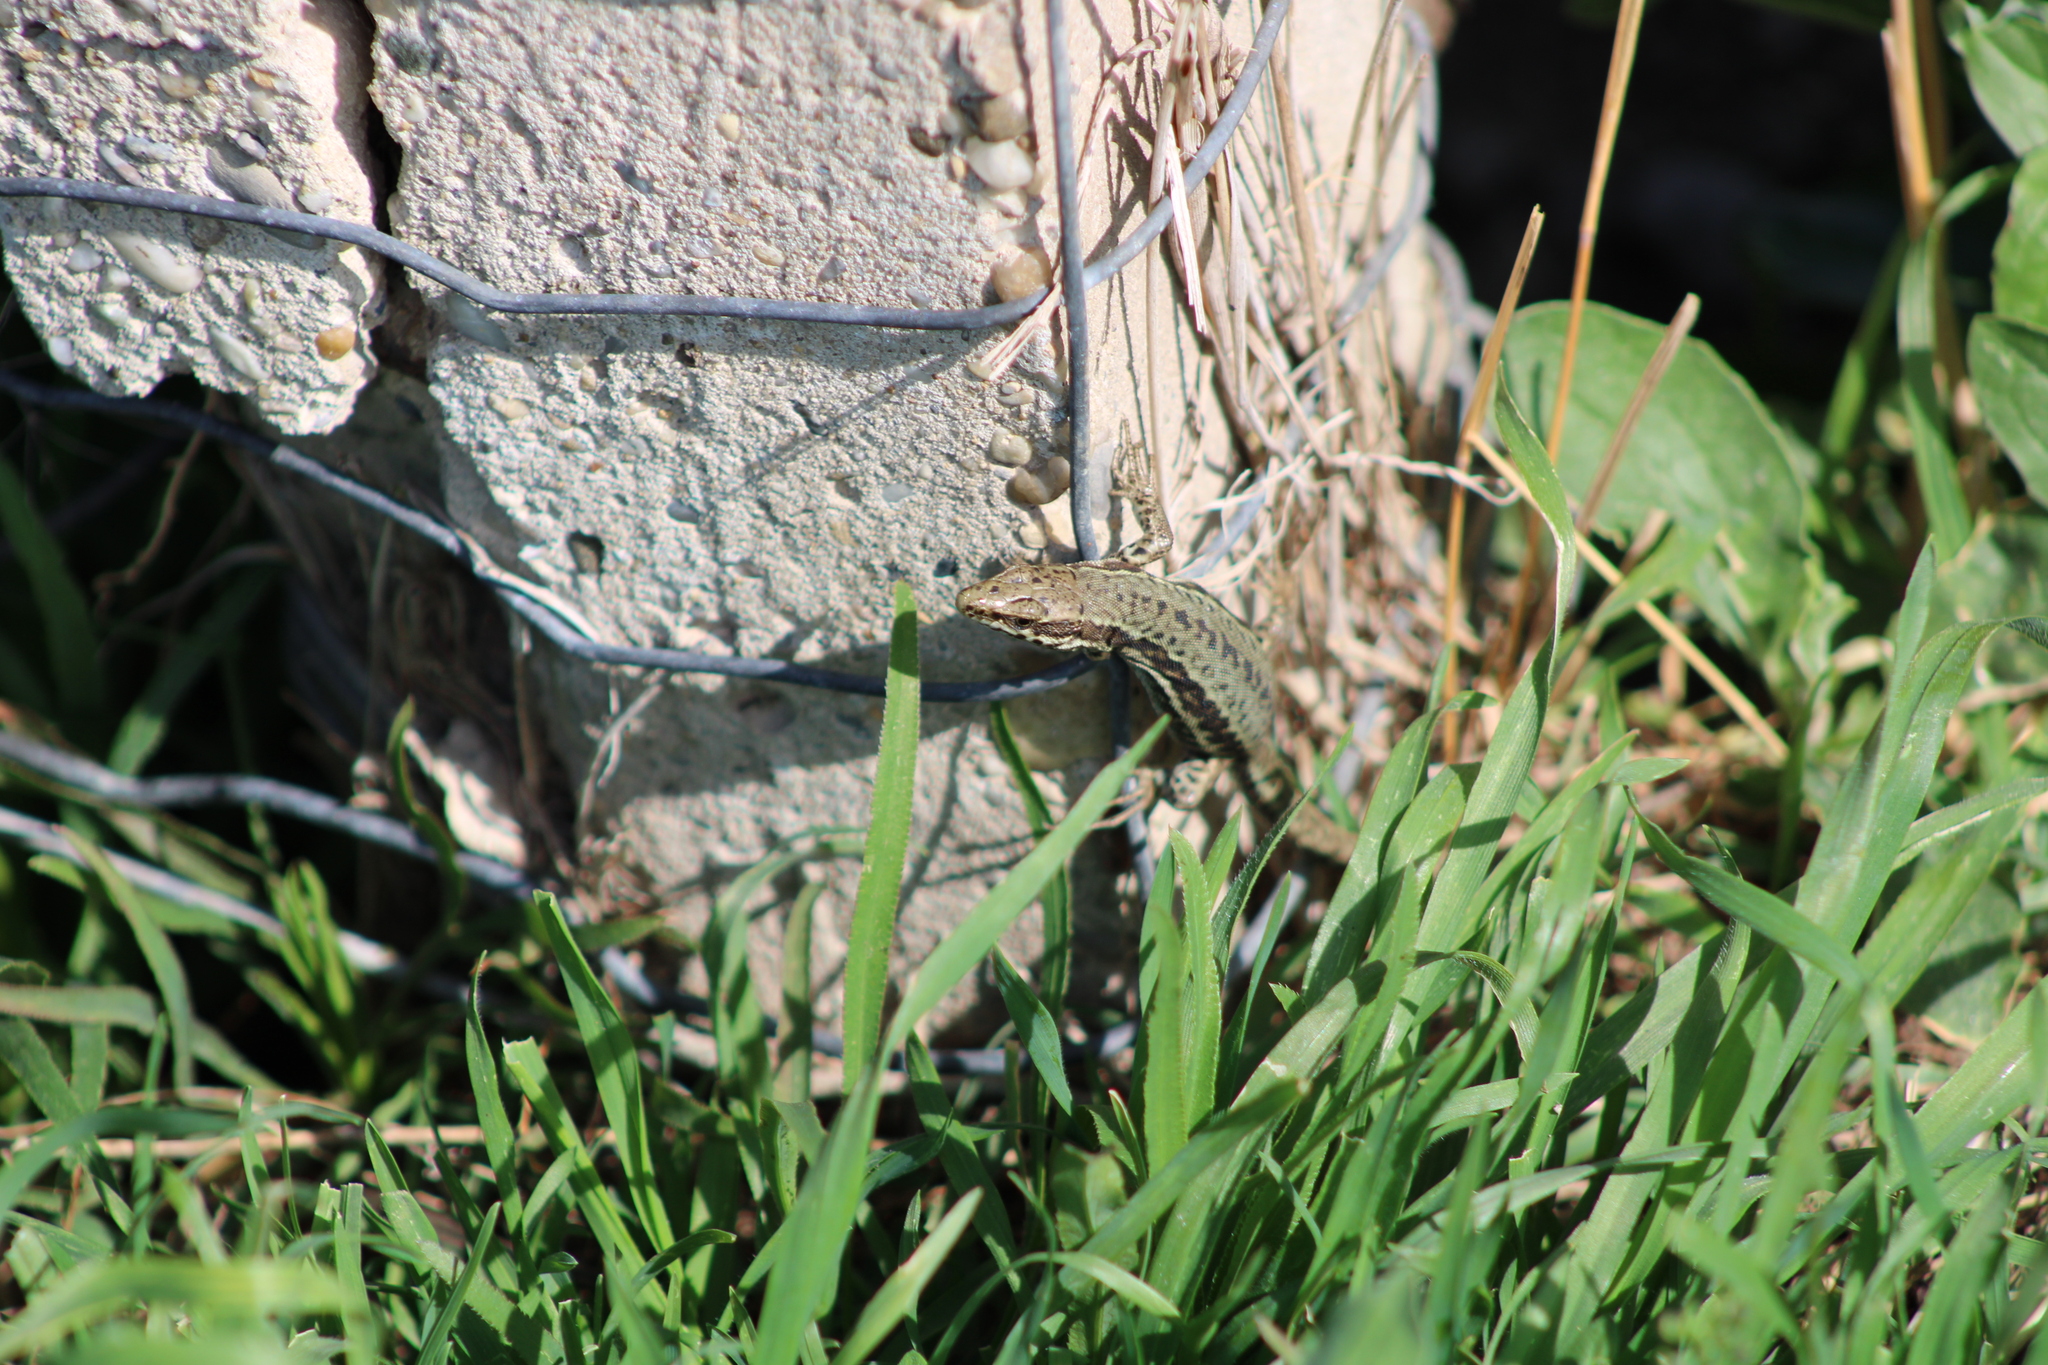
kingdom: Animalia
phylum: Chordata
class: Squamata
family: Lacertidae
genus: Podarcis
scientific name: Podarcis muralis
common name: Common wall lizard
